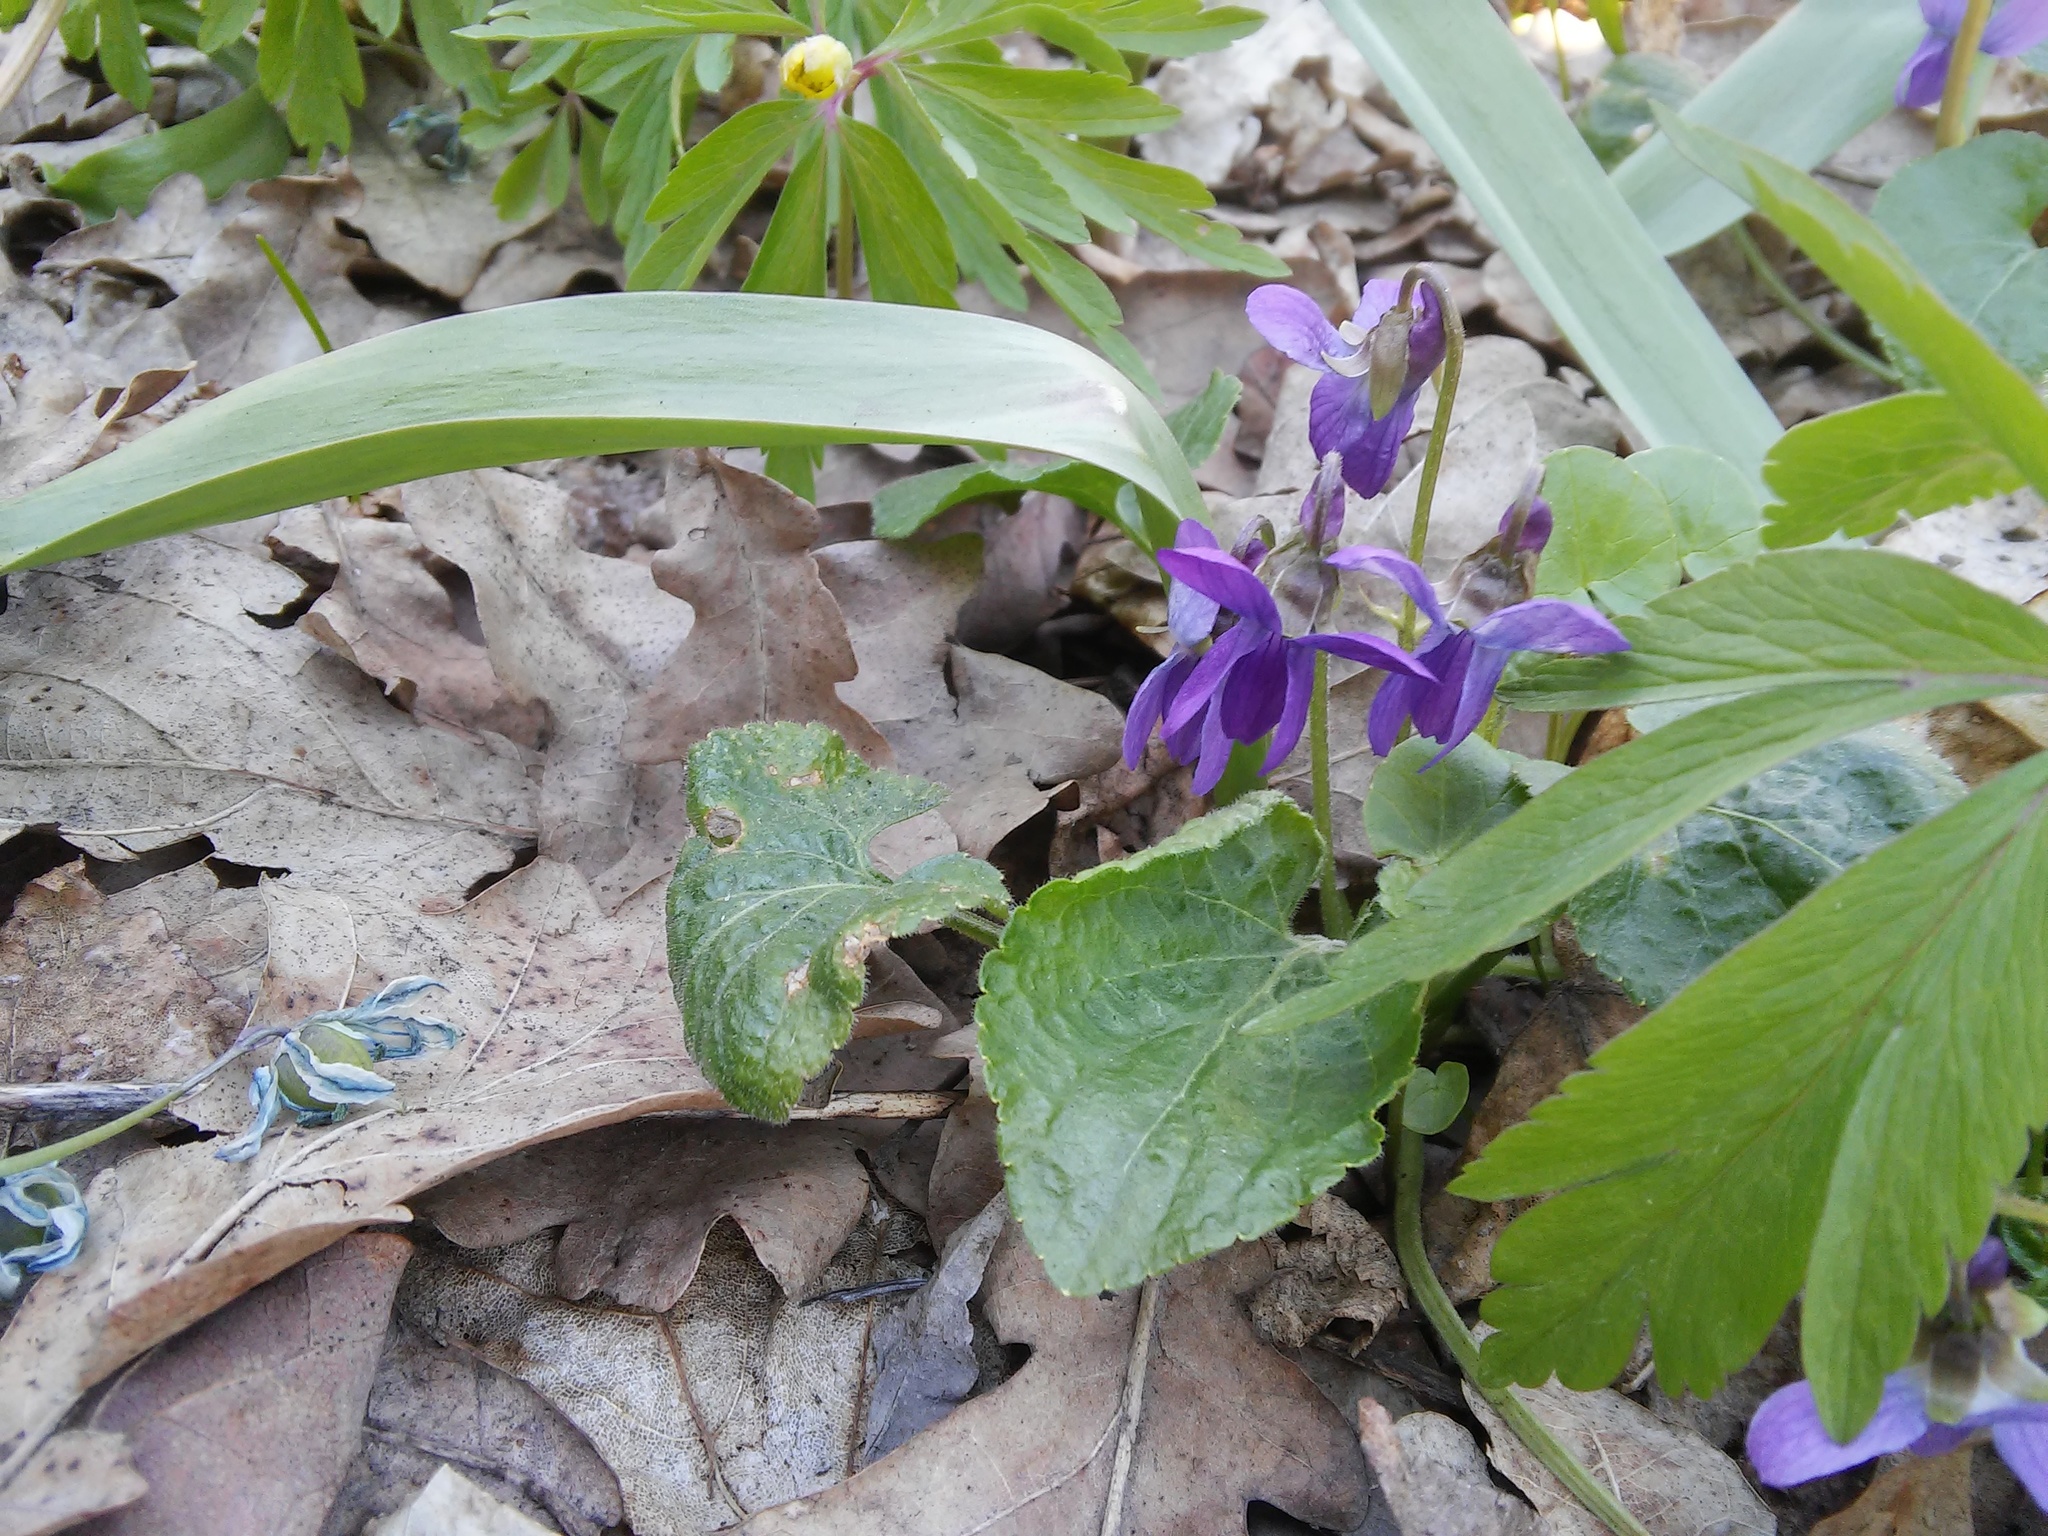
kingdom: Plantae
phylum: Tracheophyta
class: Magnoliopsida
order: Malpighiales
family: Violaceae
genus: Viola
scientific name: Viola odorata
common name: Sweet violet
